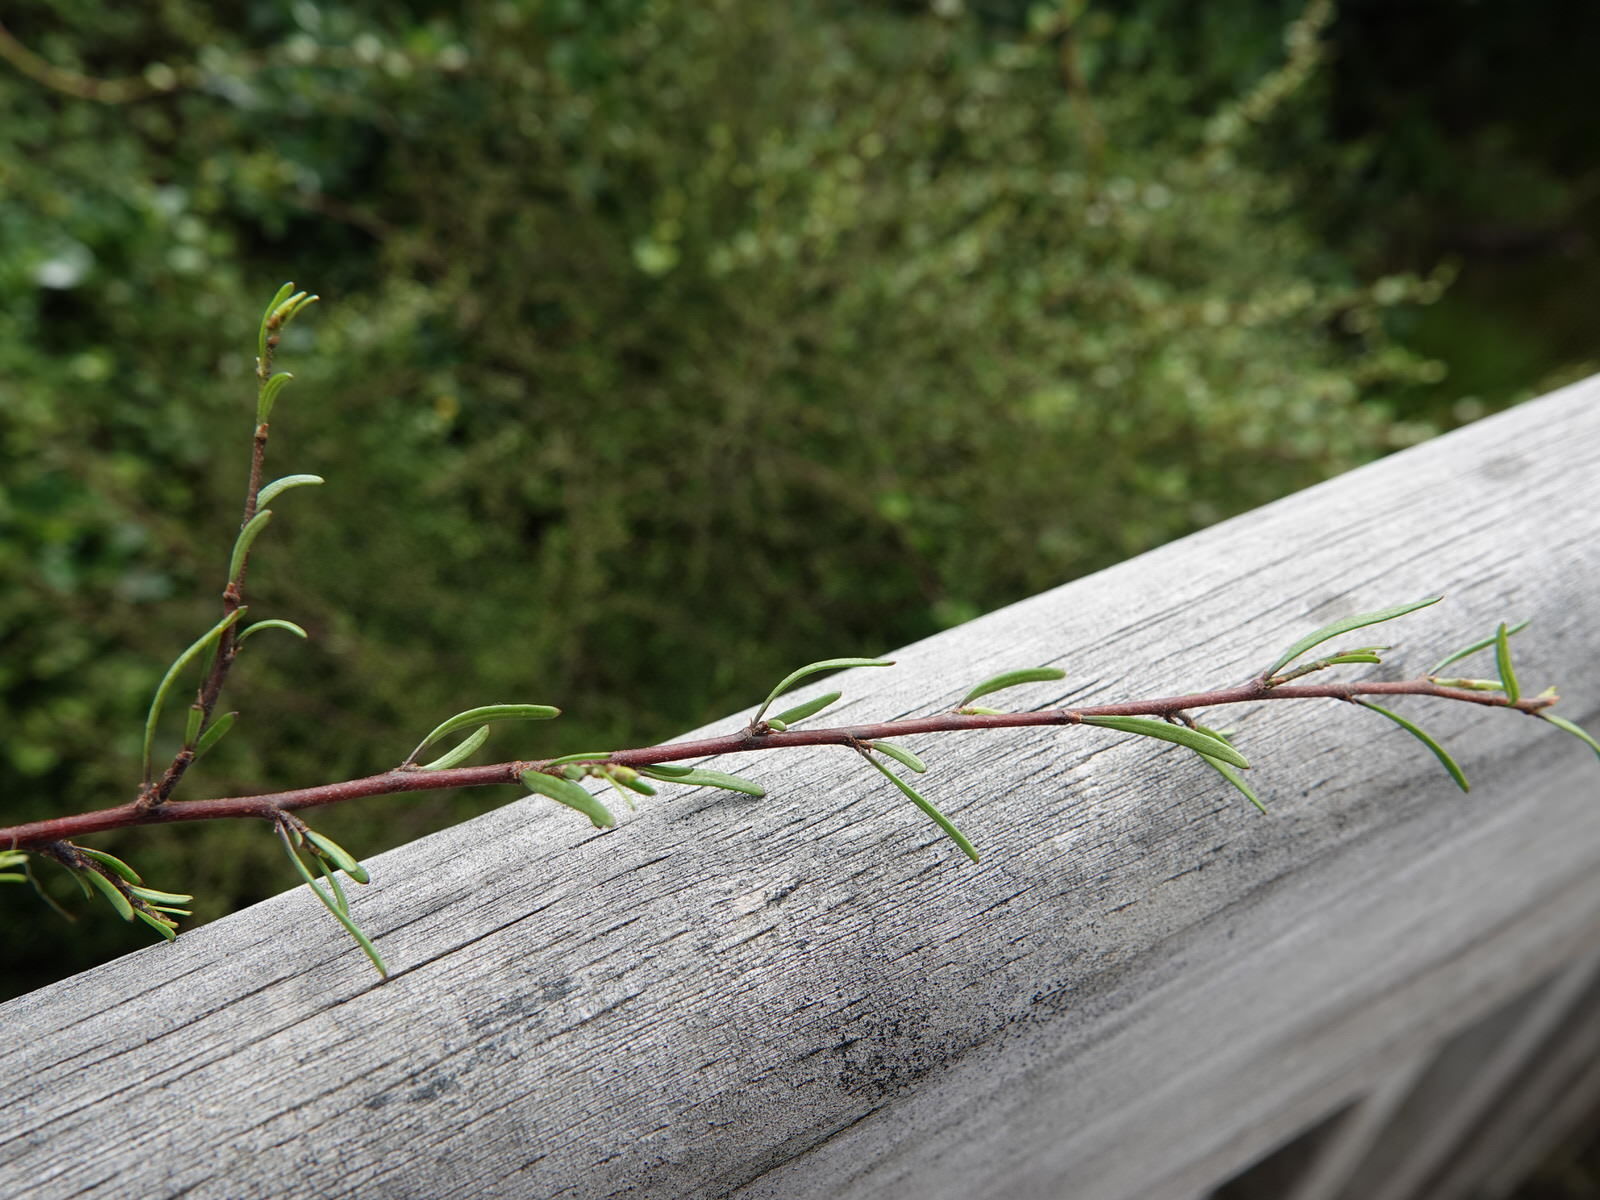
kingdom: Plantae
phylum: Tracheophyta
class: Magnoliopsida
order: Malvales
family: Malvaceae
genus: Plagianthus
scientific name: Plagianthus divaricatus
